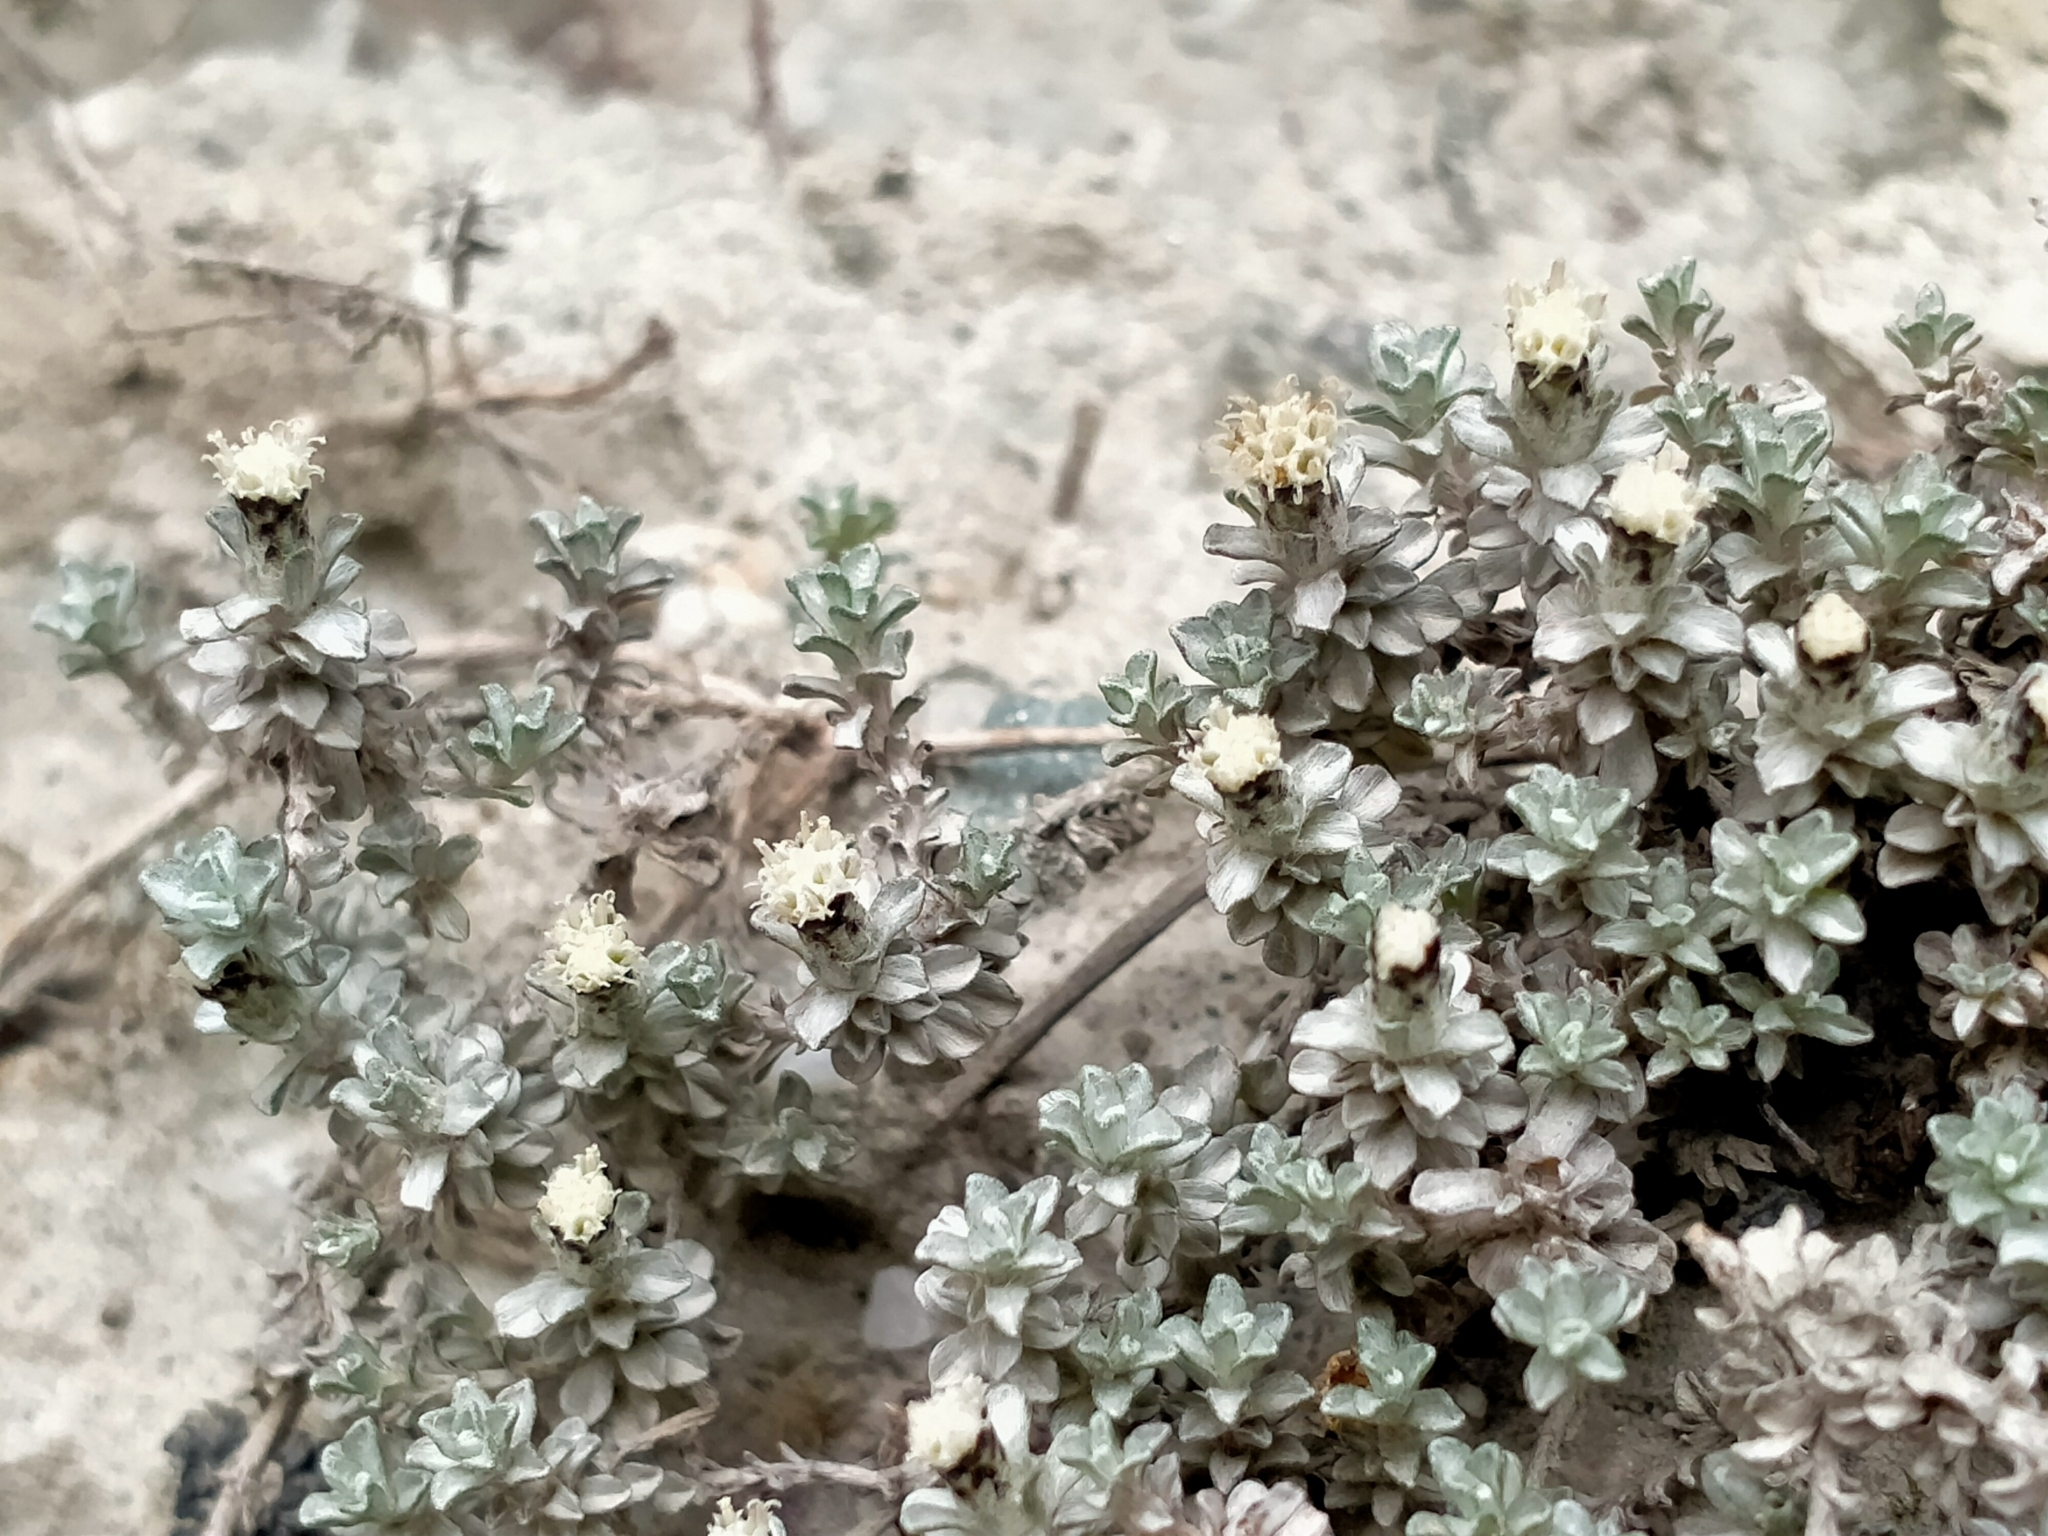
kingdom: Plantae
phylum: Tracheophyta
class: Magnoliopsida
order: Asterales
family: Asteraceae
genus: Raoulia
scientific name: Raoulia apicinigra
